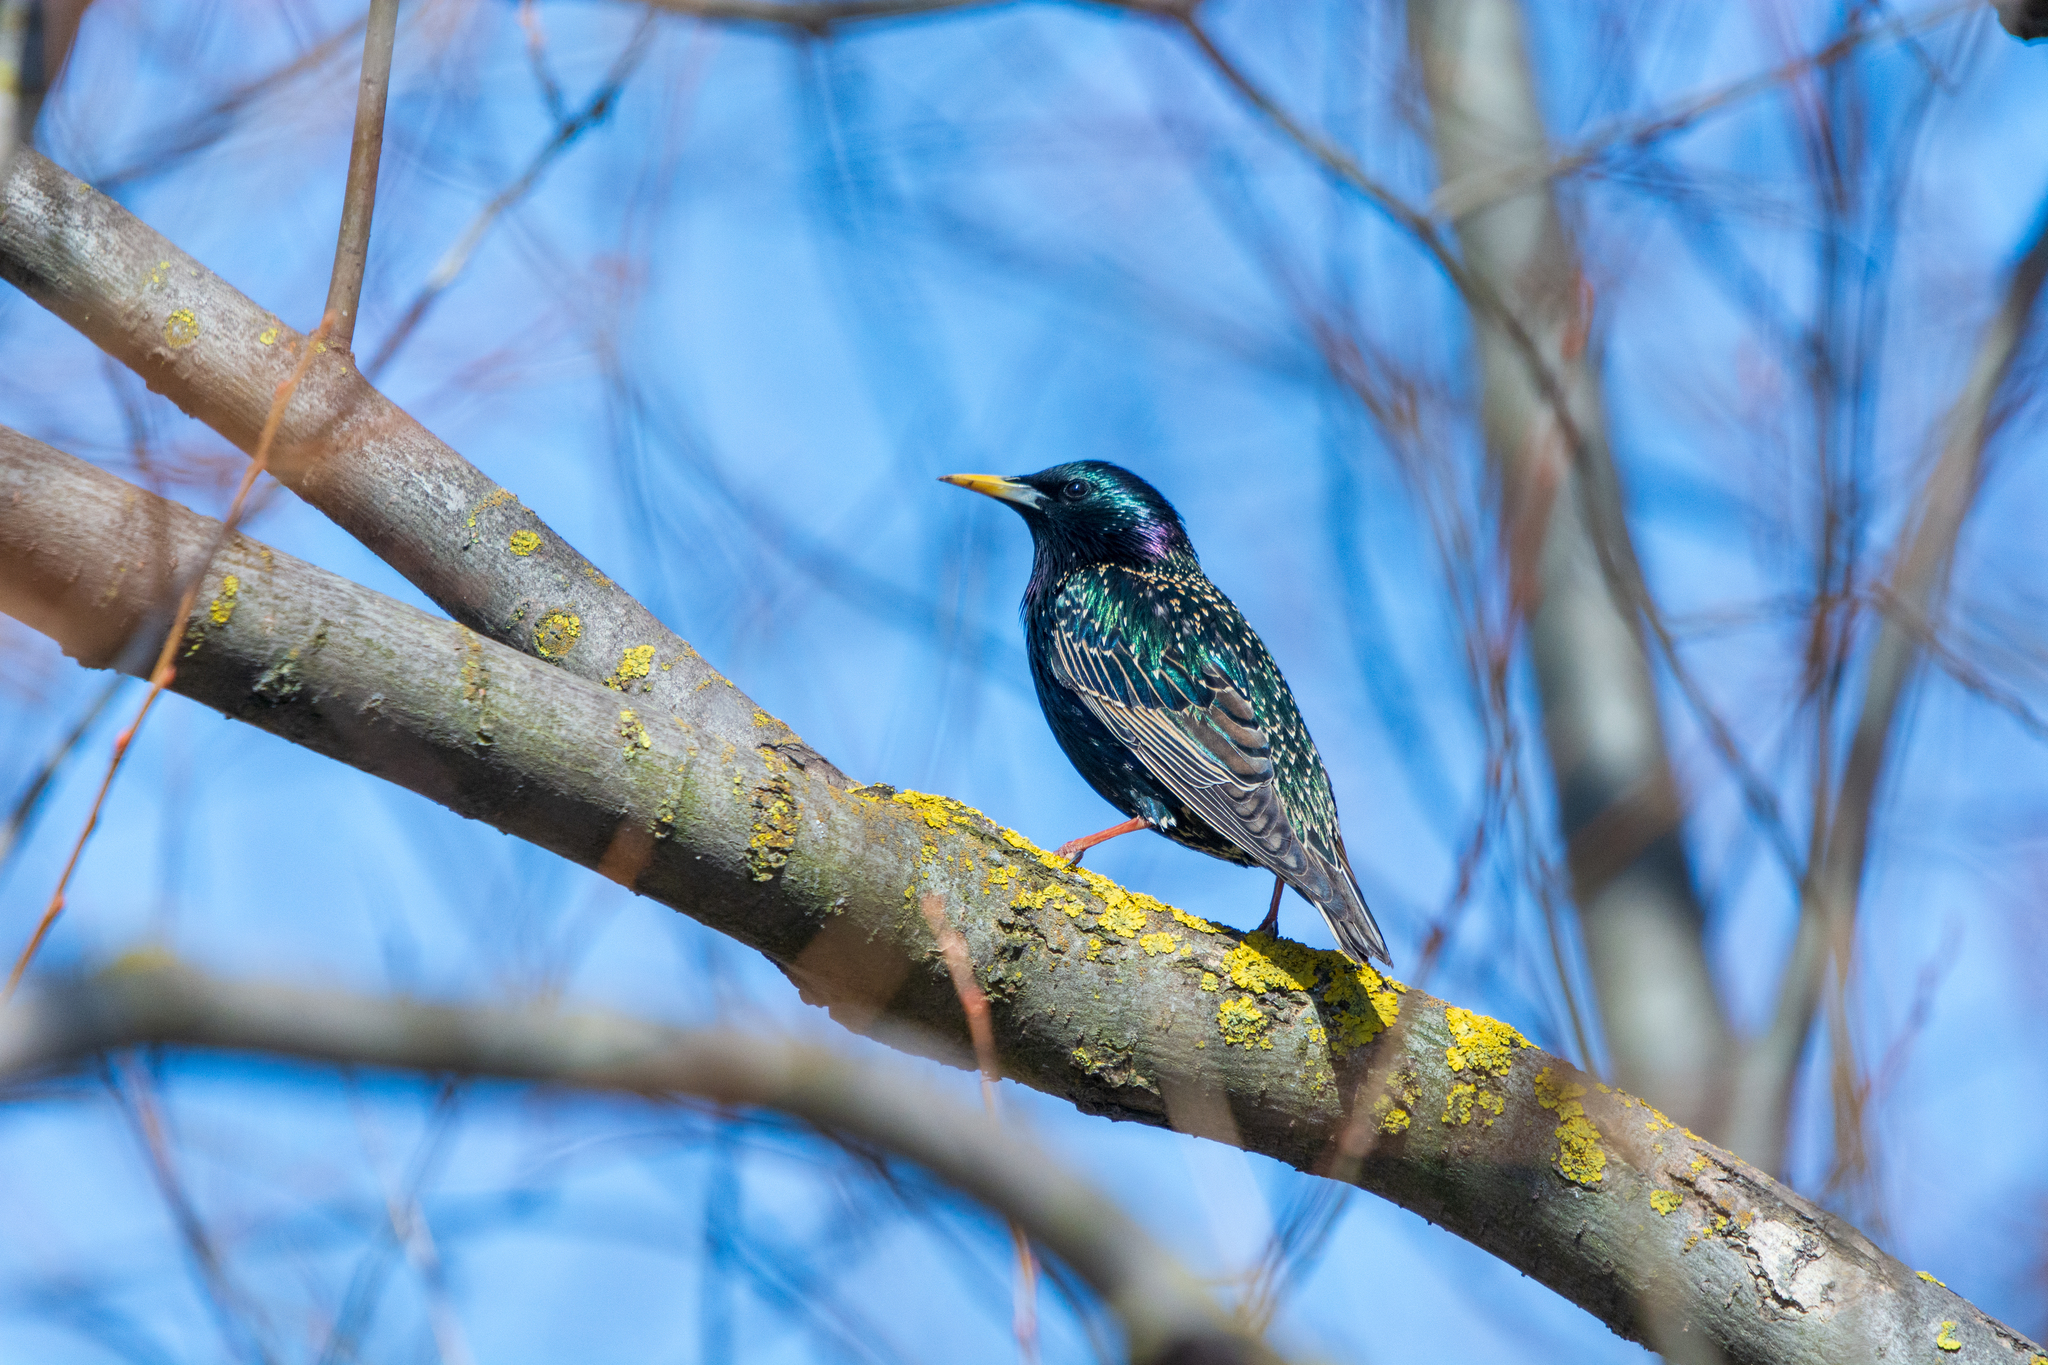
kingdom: Animalia
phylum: Chordata
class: Aves
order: Passeriformes
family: Sturnidae
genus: Sturnus
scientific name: Sturnus vulgaris
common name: Common starling
